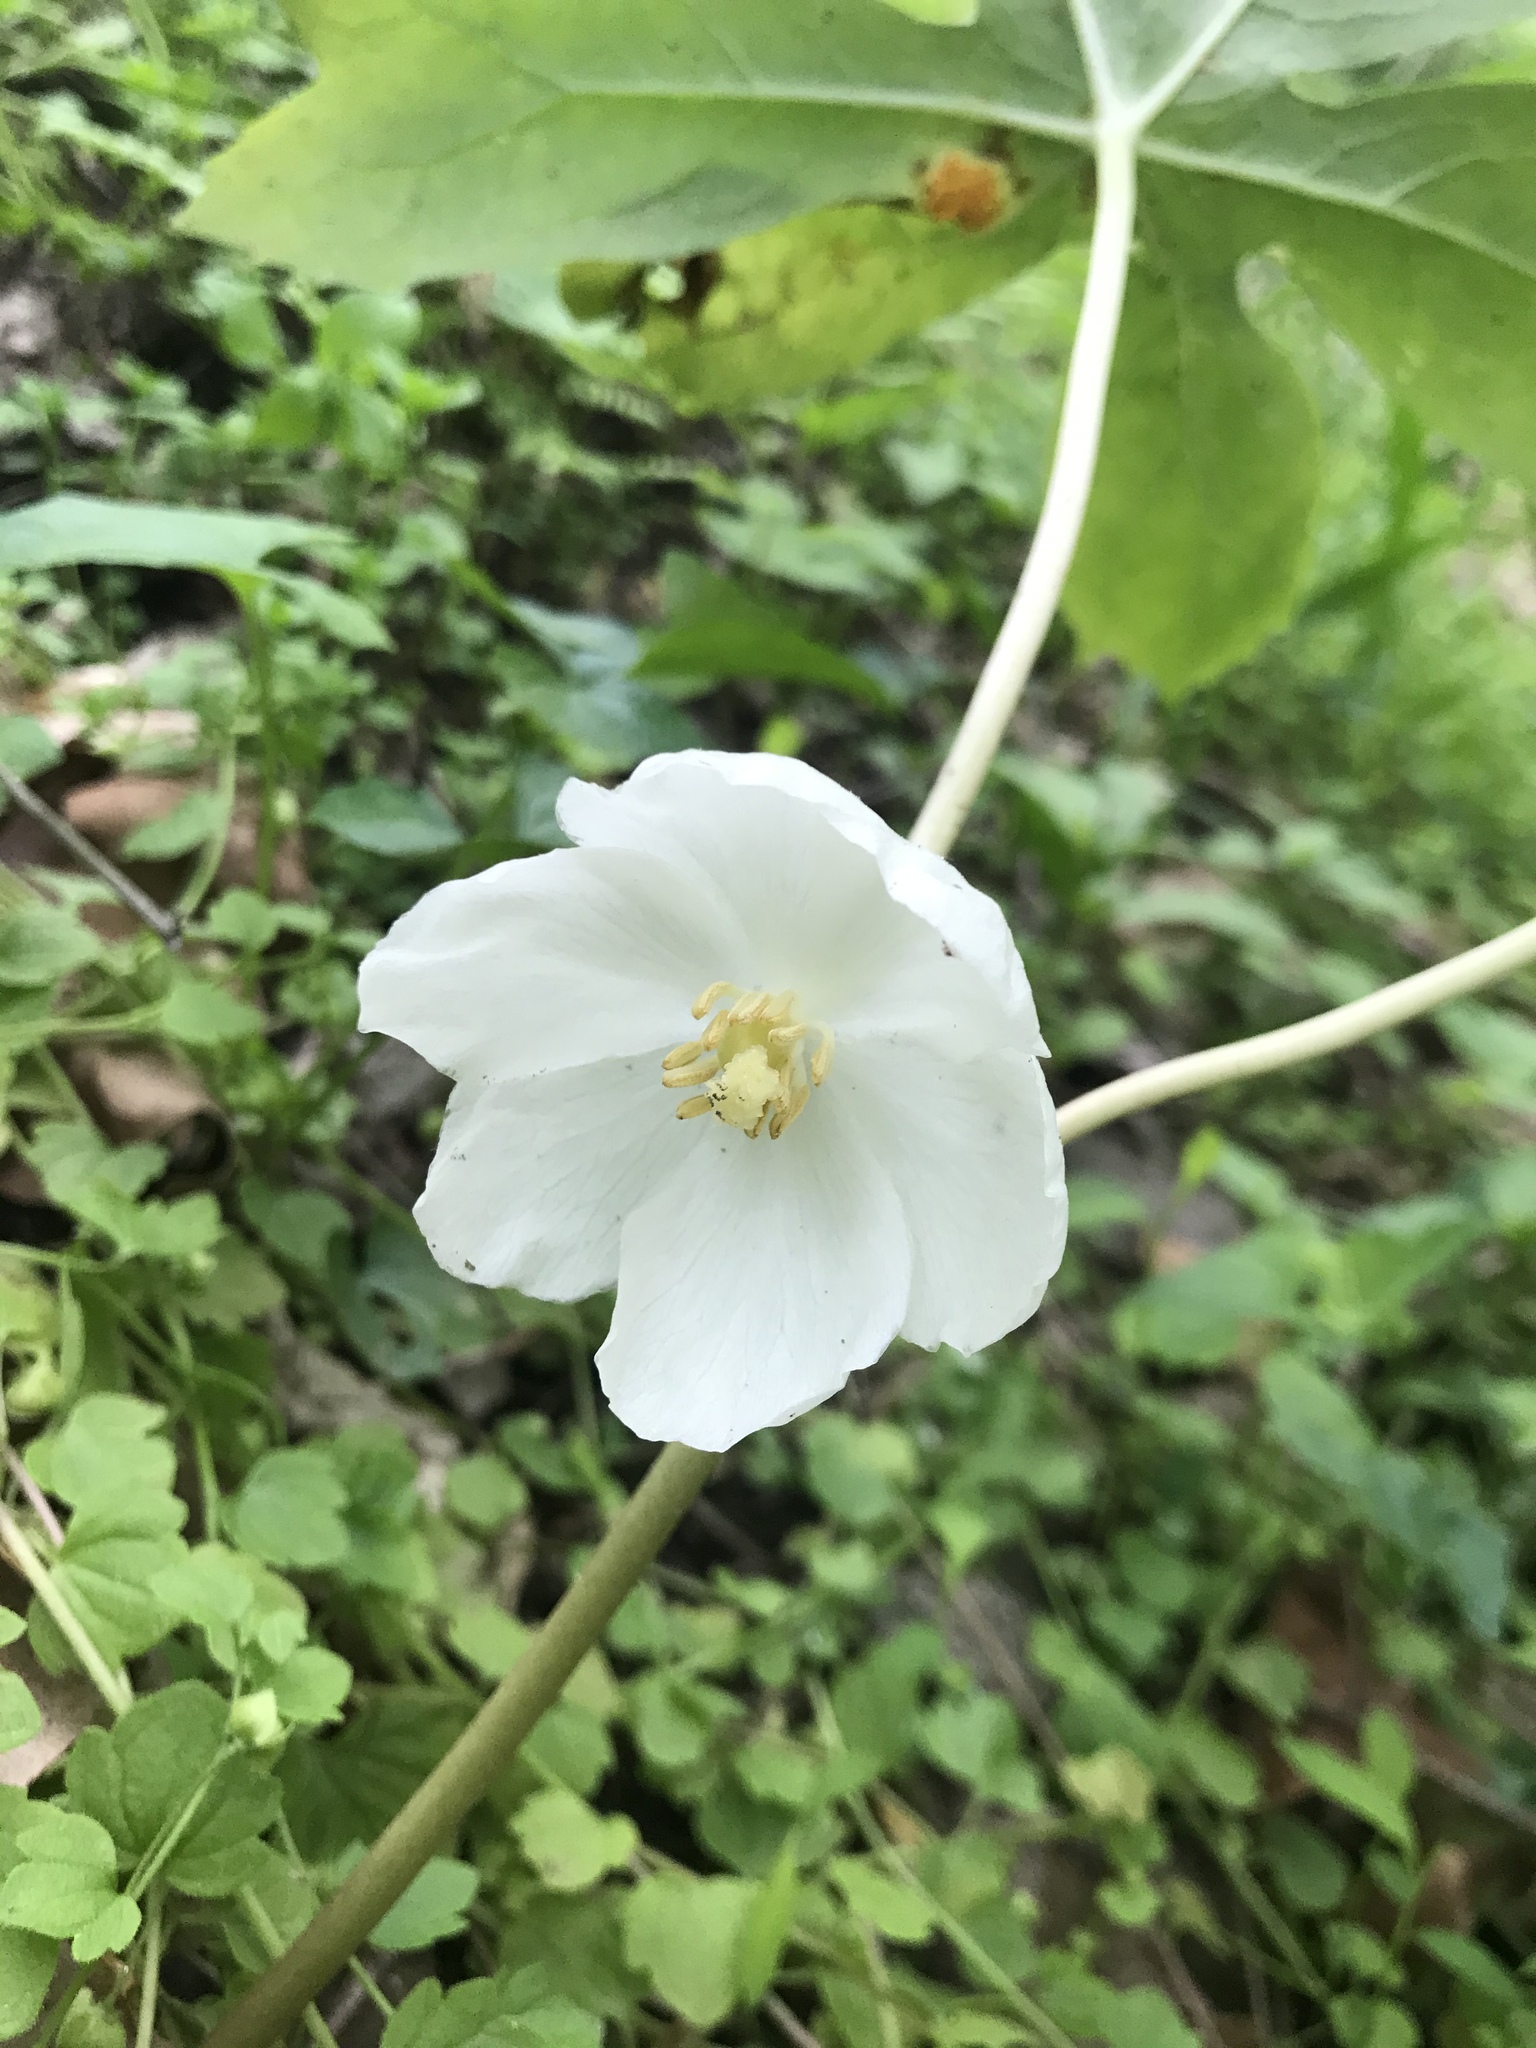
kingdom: Plantae
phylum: Tracheophyta
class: Magnoliopsida
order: Ranunculales
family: Berberidaceae
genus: Podophyllum
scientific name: Podophyllum peltatum
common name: Wild mandrake
